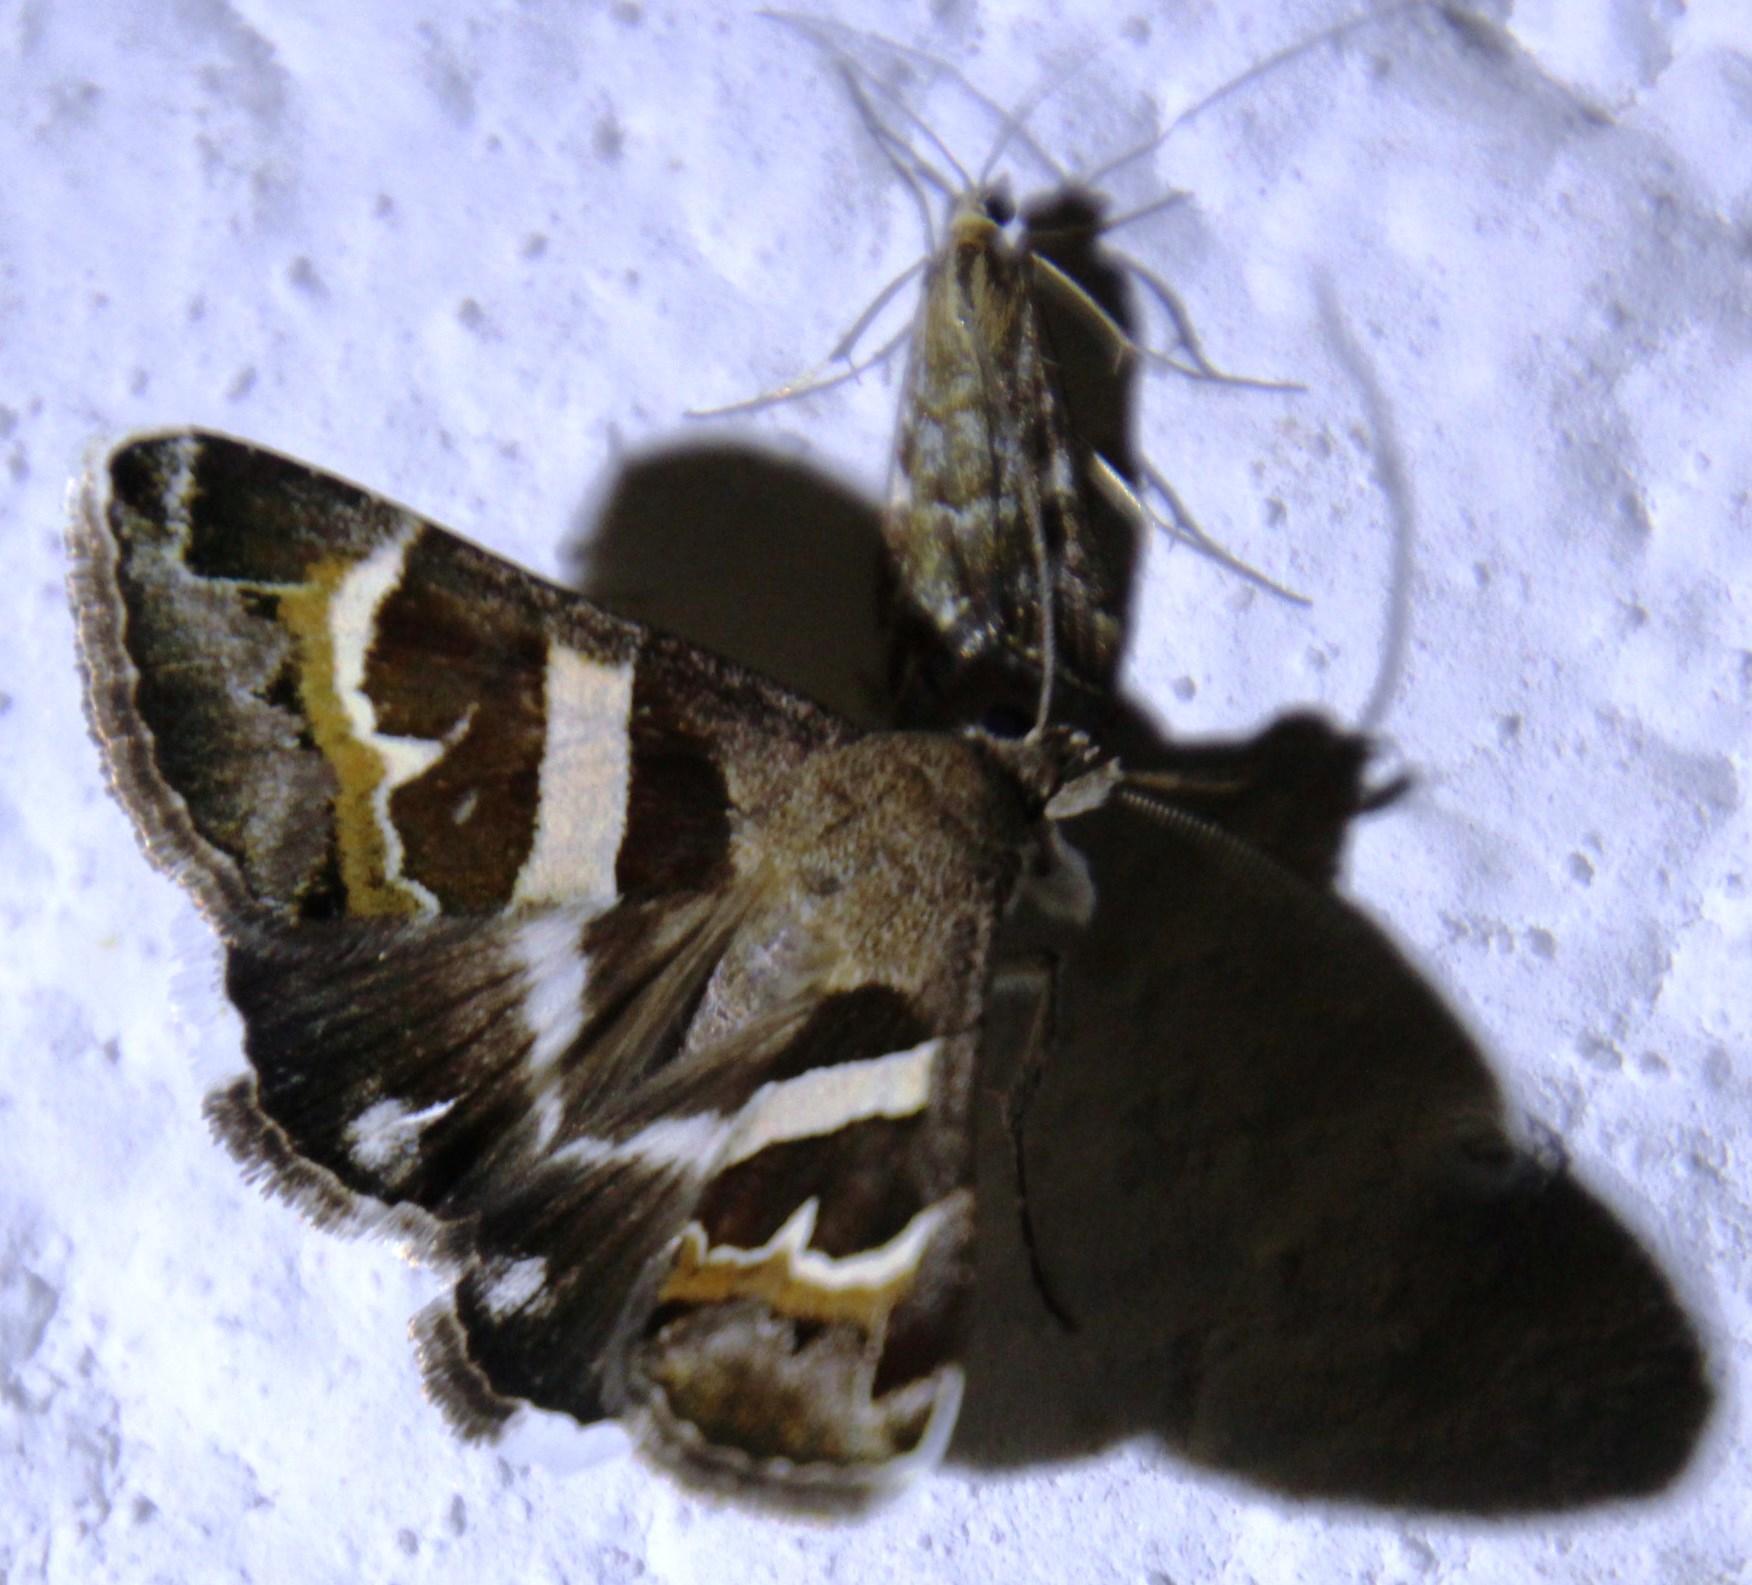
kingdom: Animalia
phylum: Arthropoda
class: Insecta
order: Lepidoptera
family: Erebidae
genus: Grammodes
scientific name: Grammodes stolida
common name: Geometrician
